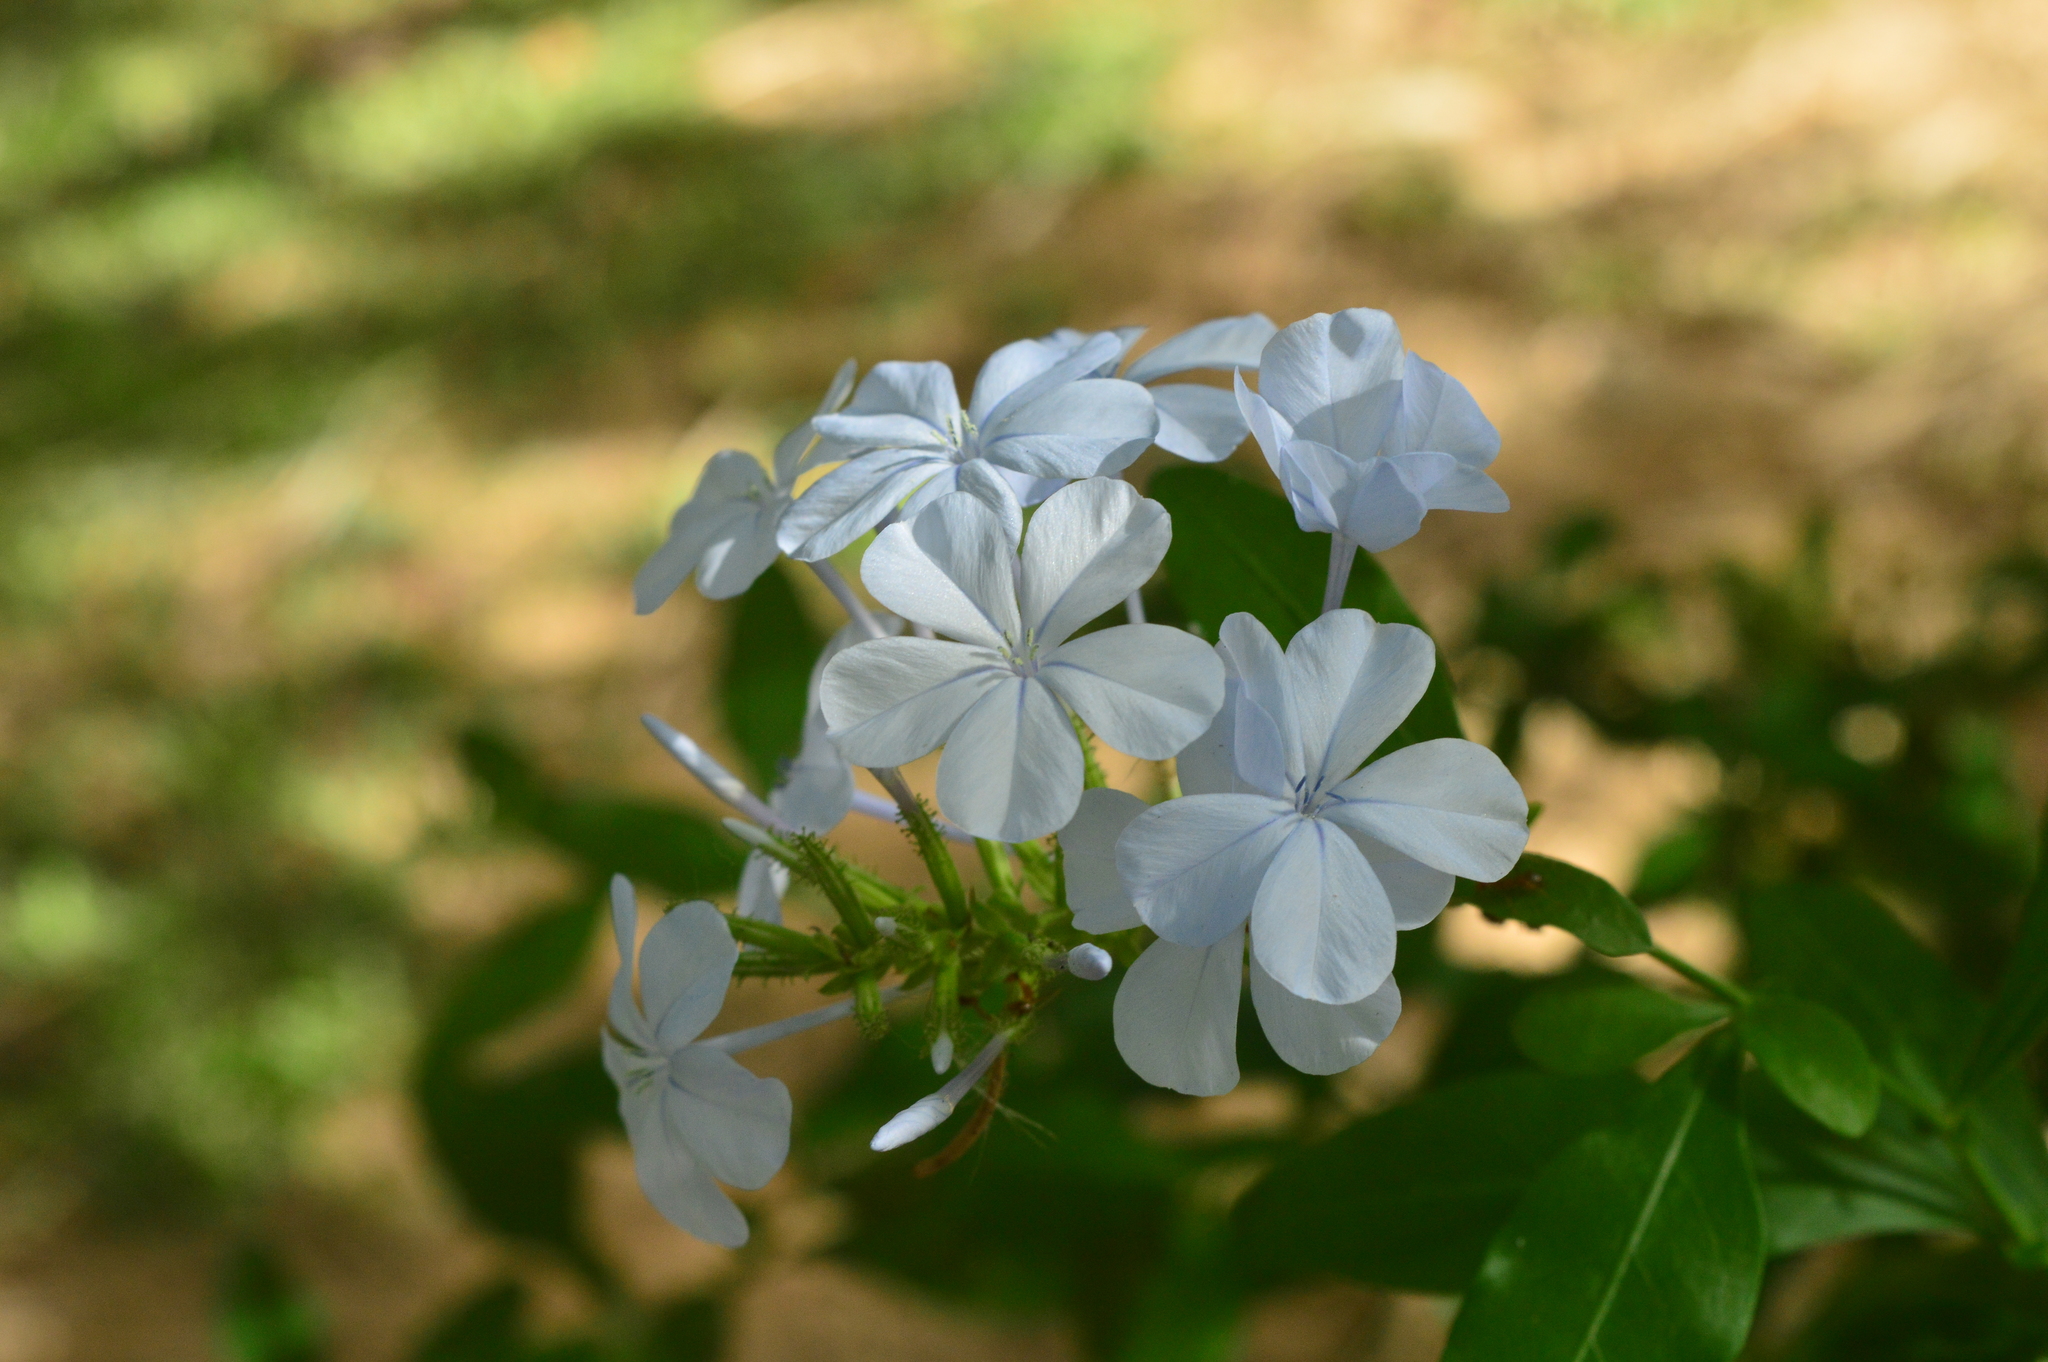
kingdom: Plantae
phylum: Tracheophyta
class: Magnoliopsida
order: Caryophyllales
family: Plumbaginaceae
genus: Plumbago
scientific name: Plumbago auriculata
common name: Cape leadwort
